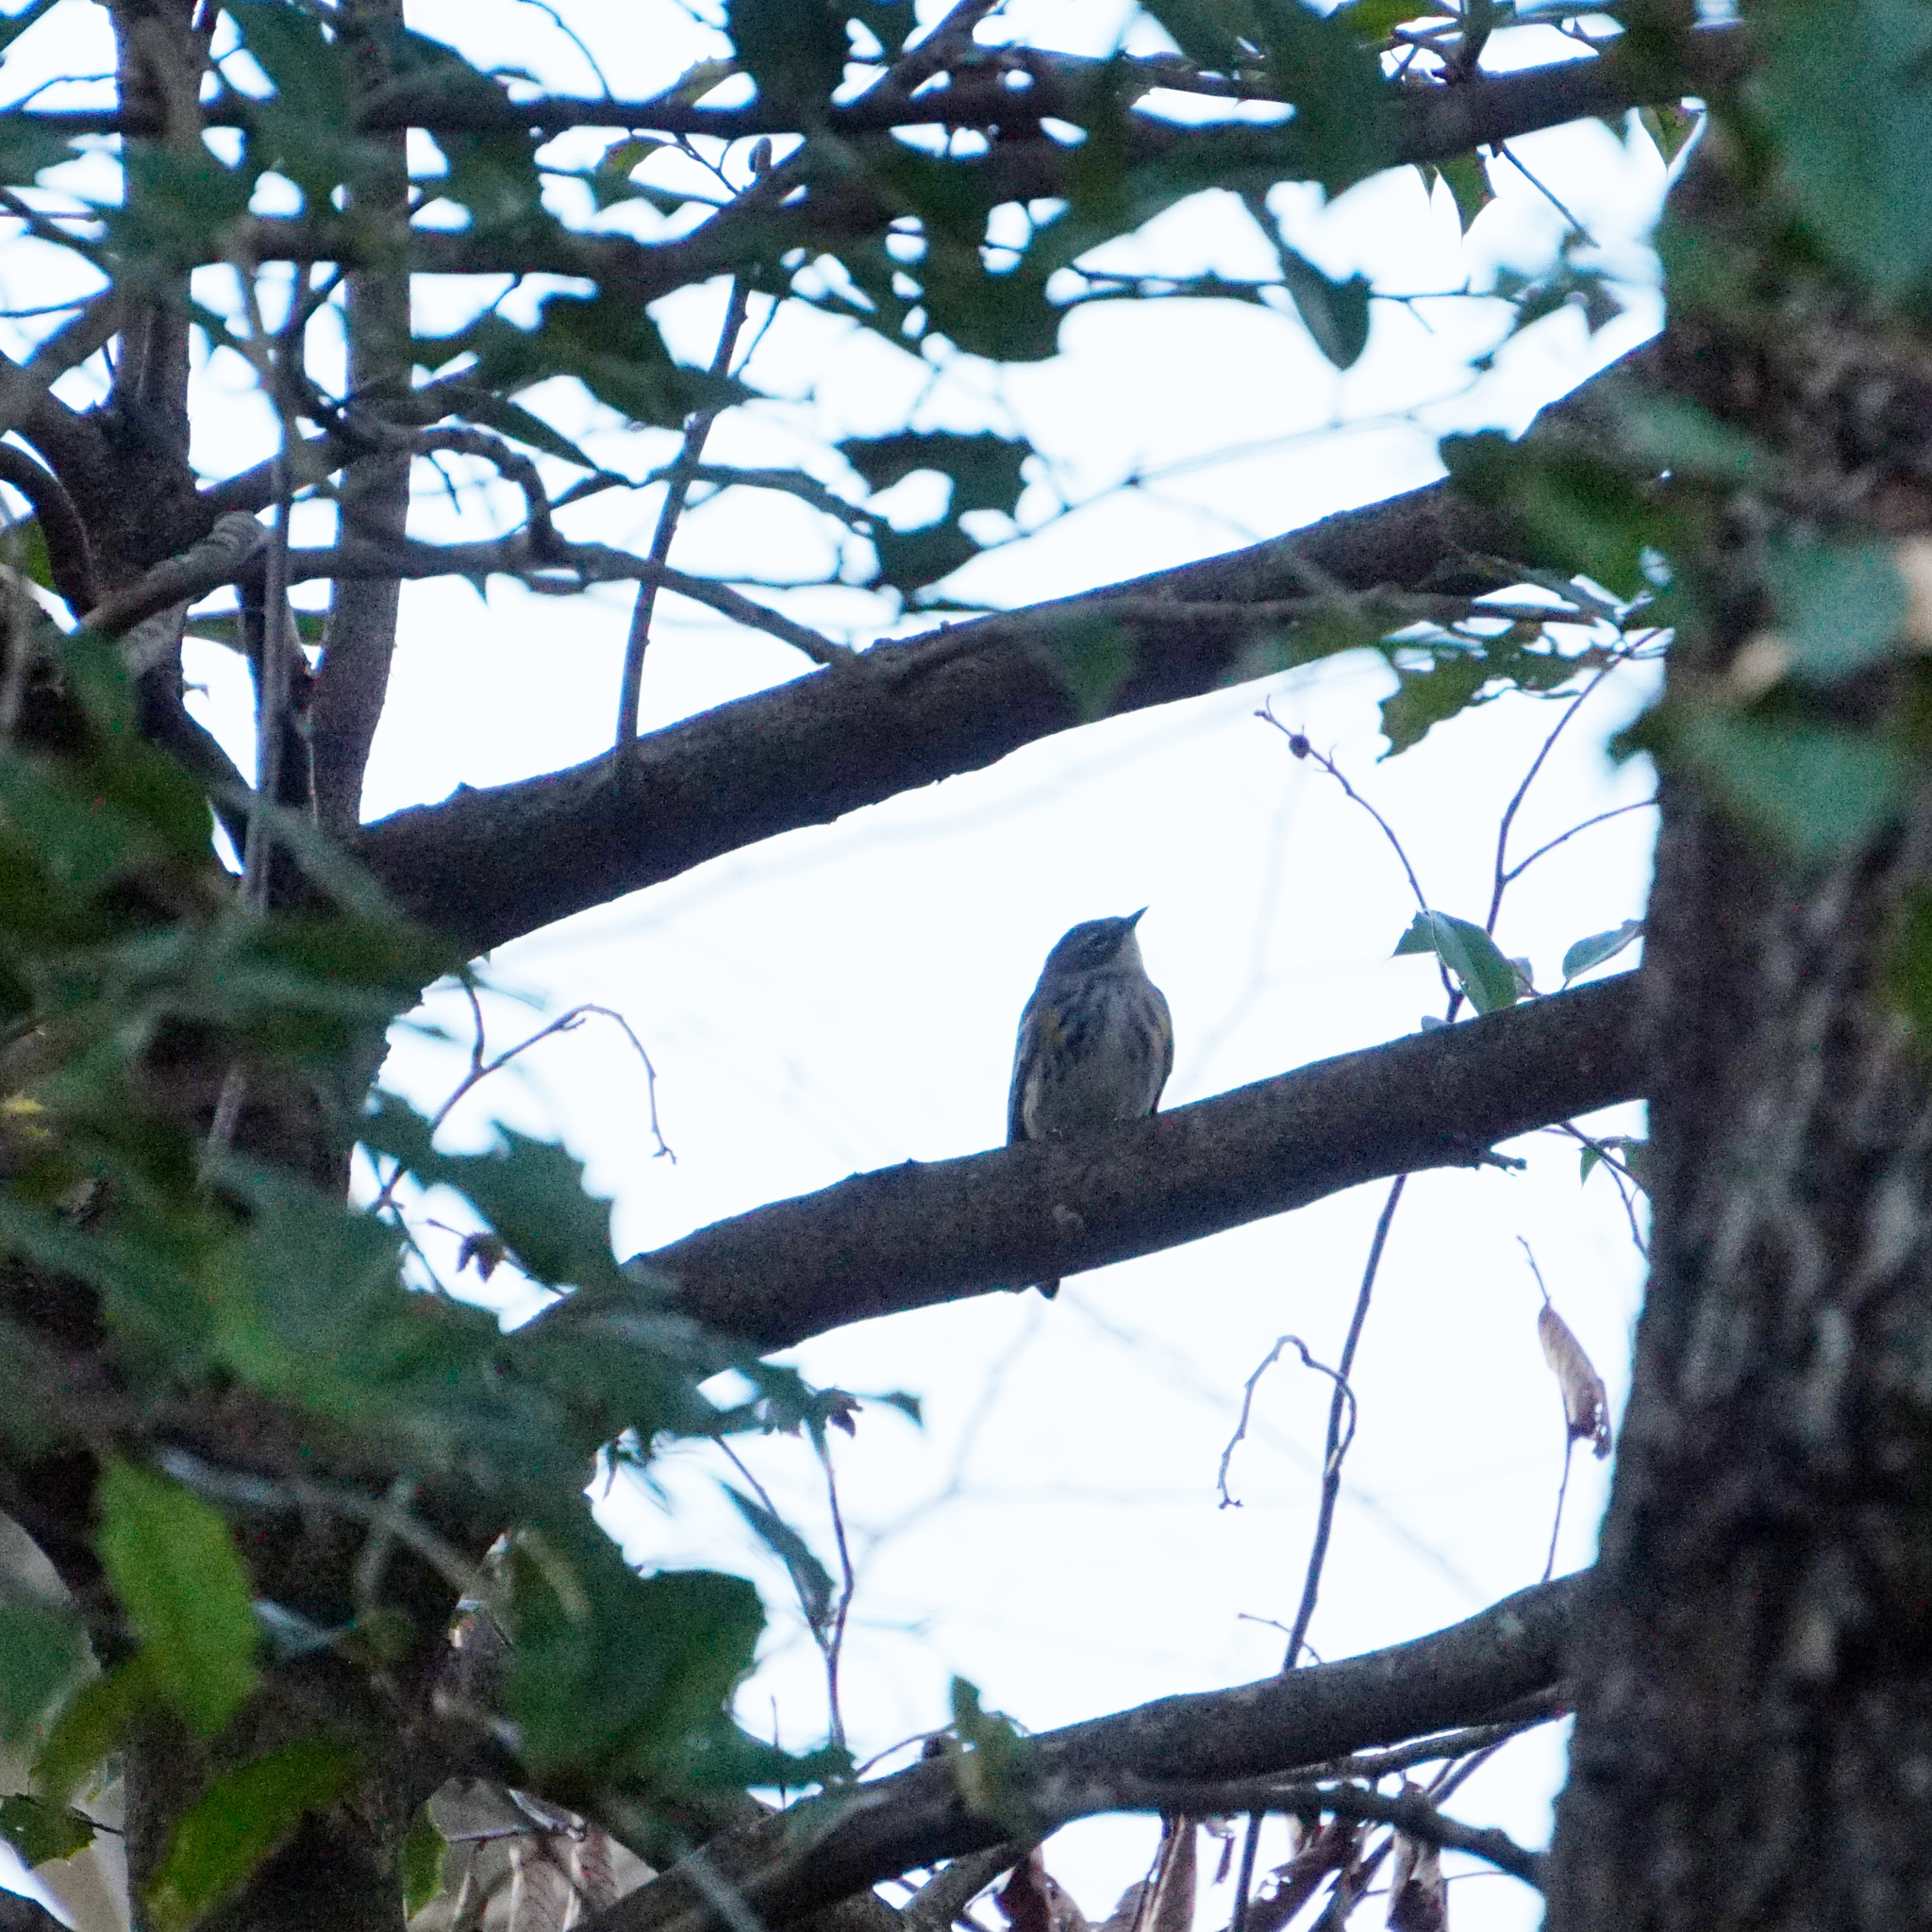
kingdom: Animalia
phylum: Chordata
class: Aves
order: Passeriformes
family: Parulidae
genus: Setophaga
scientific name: Setophaga coronata
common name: Myrtle warbler
